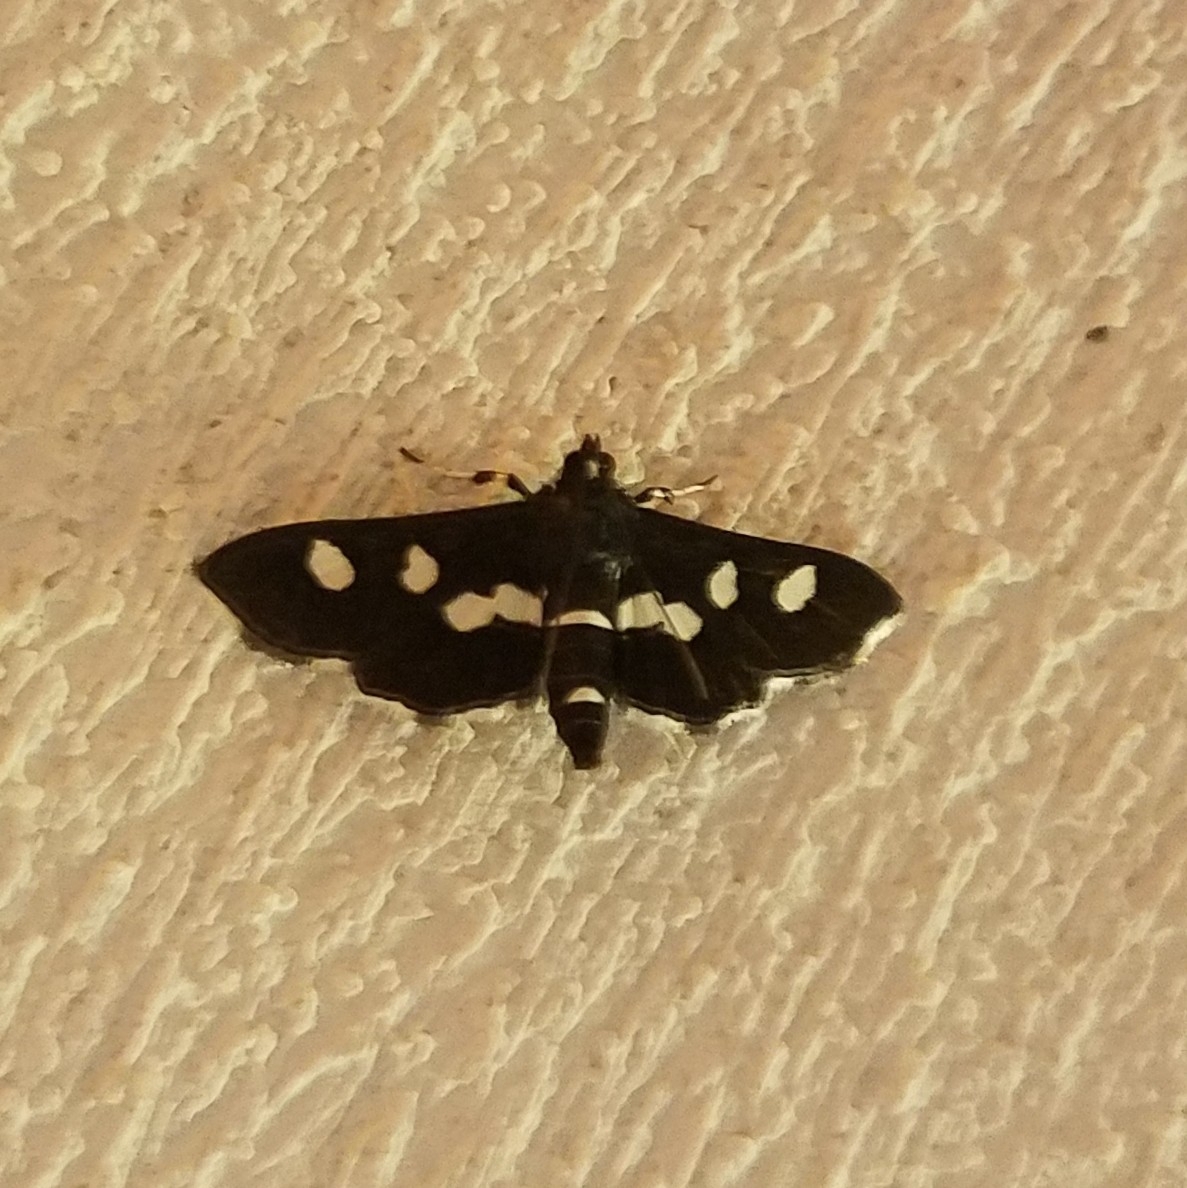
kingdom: Animalia
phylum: Arthropoda
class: Insecta
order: Lepidoptera
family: Crambidae
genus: Desmia
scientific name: Desmia
